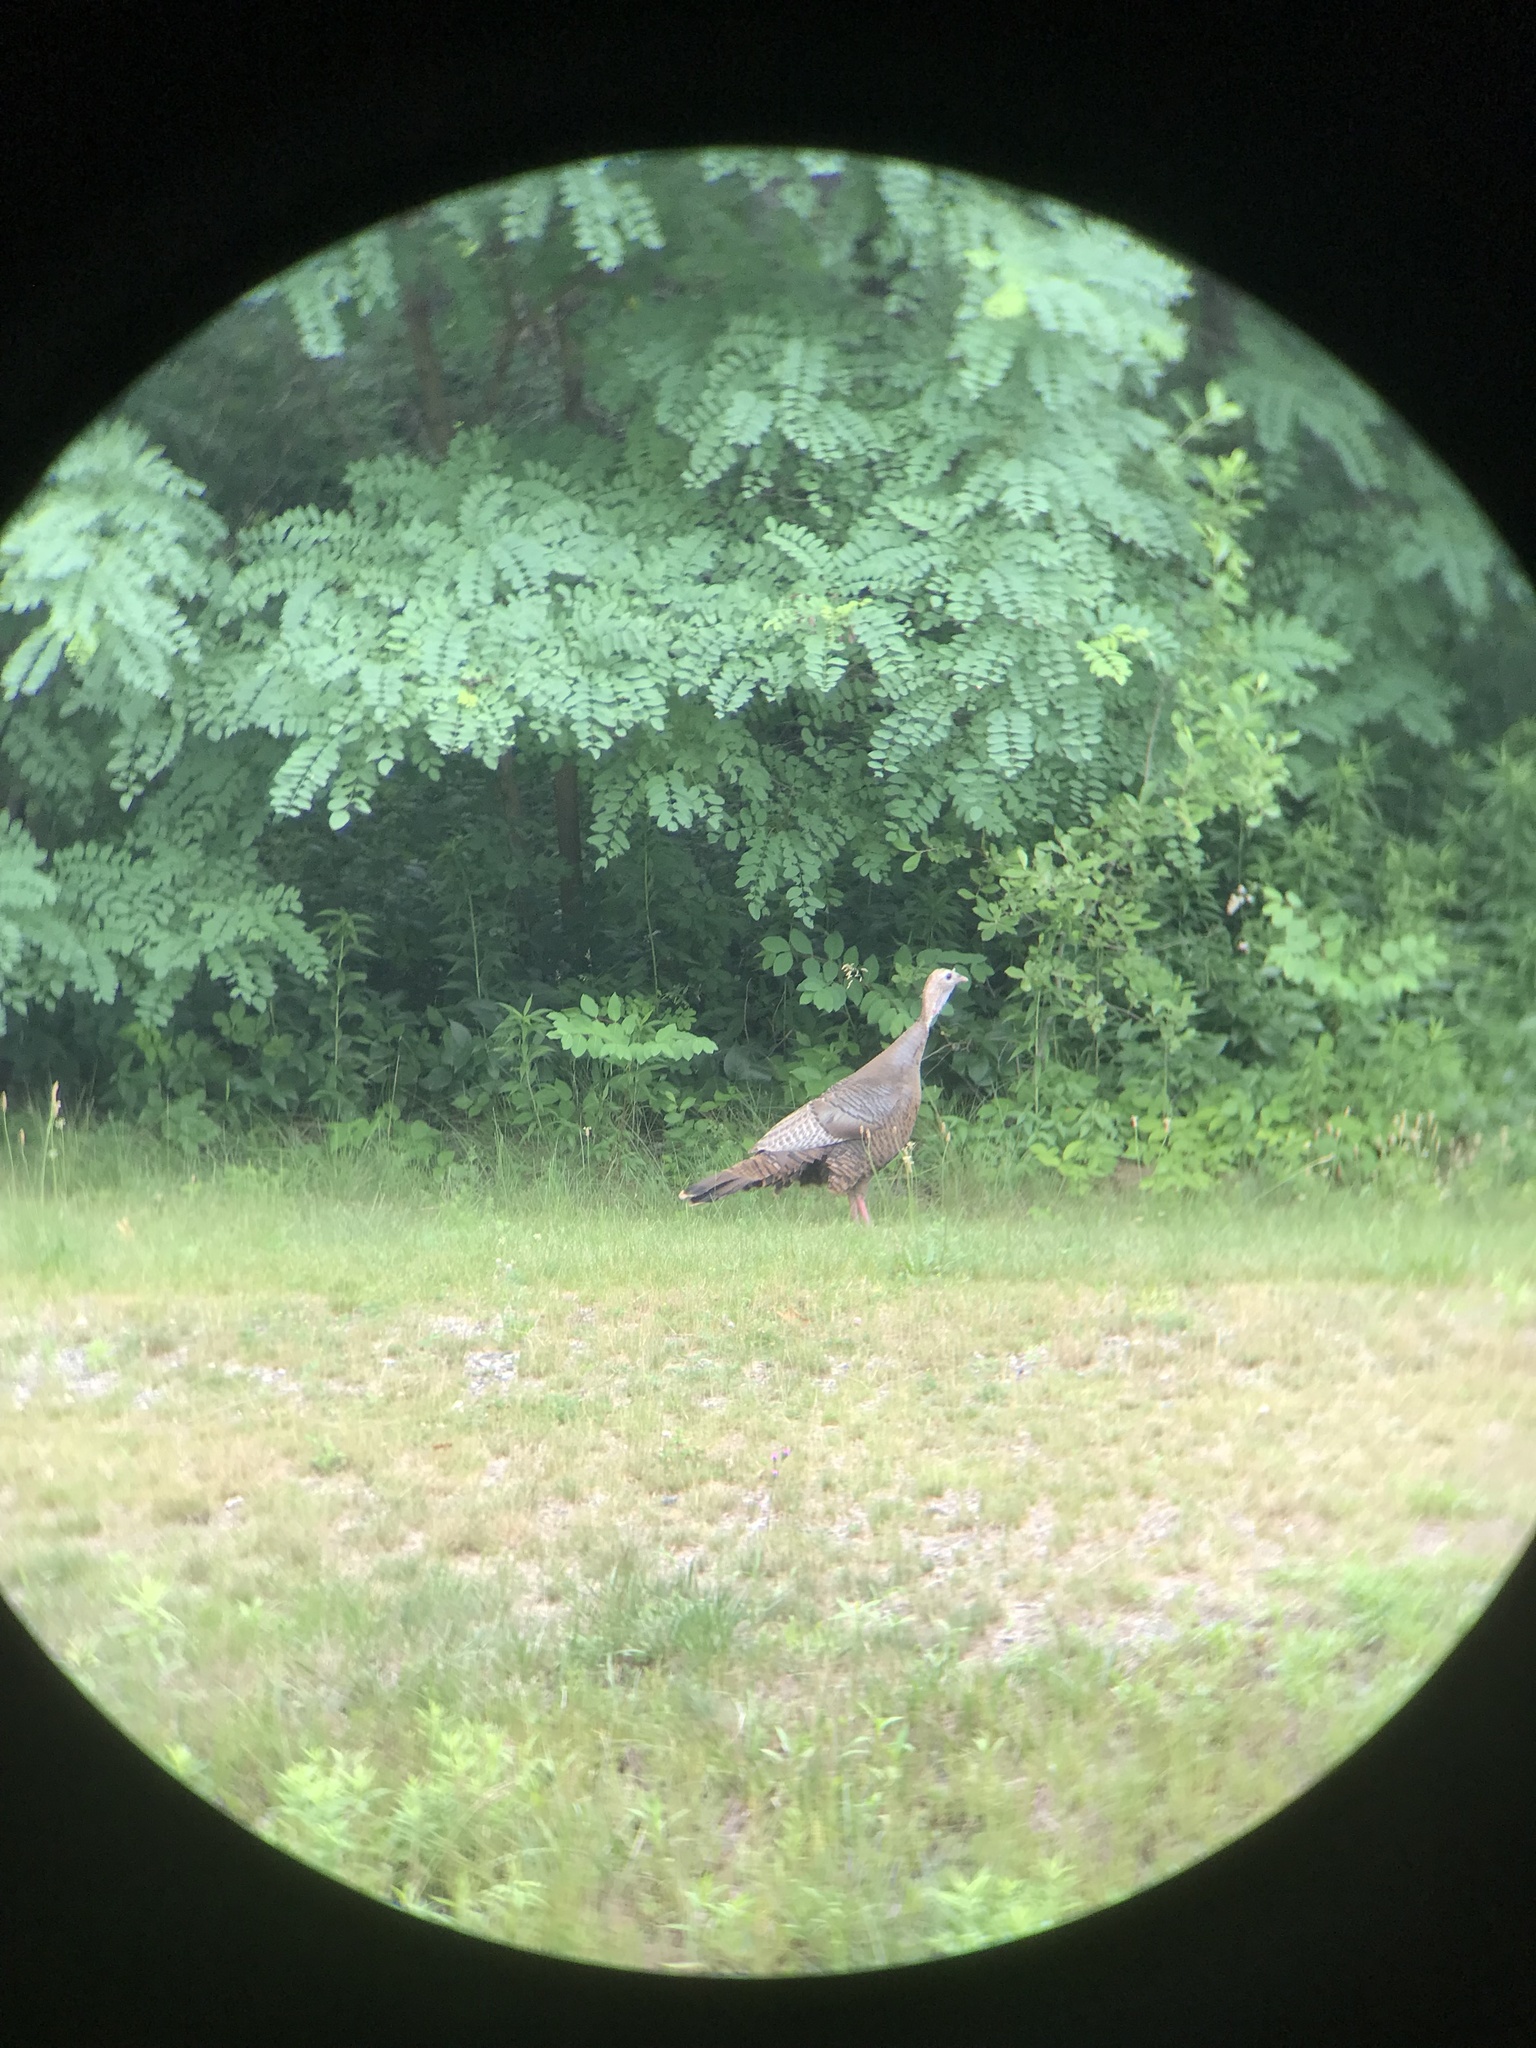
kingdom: Animalia
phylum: Chordata
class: Aves
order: Galliformes
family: Phasianidae
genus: Meleagris
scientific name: Meleagris gallopavo
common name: Wild turkey
